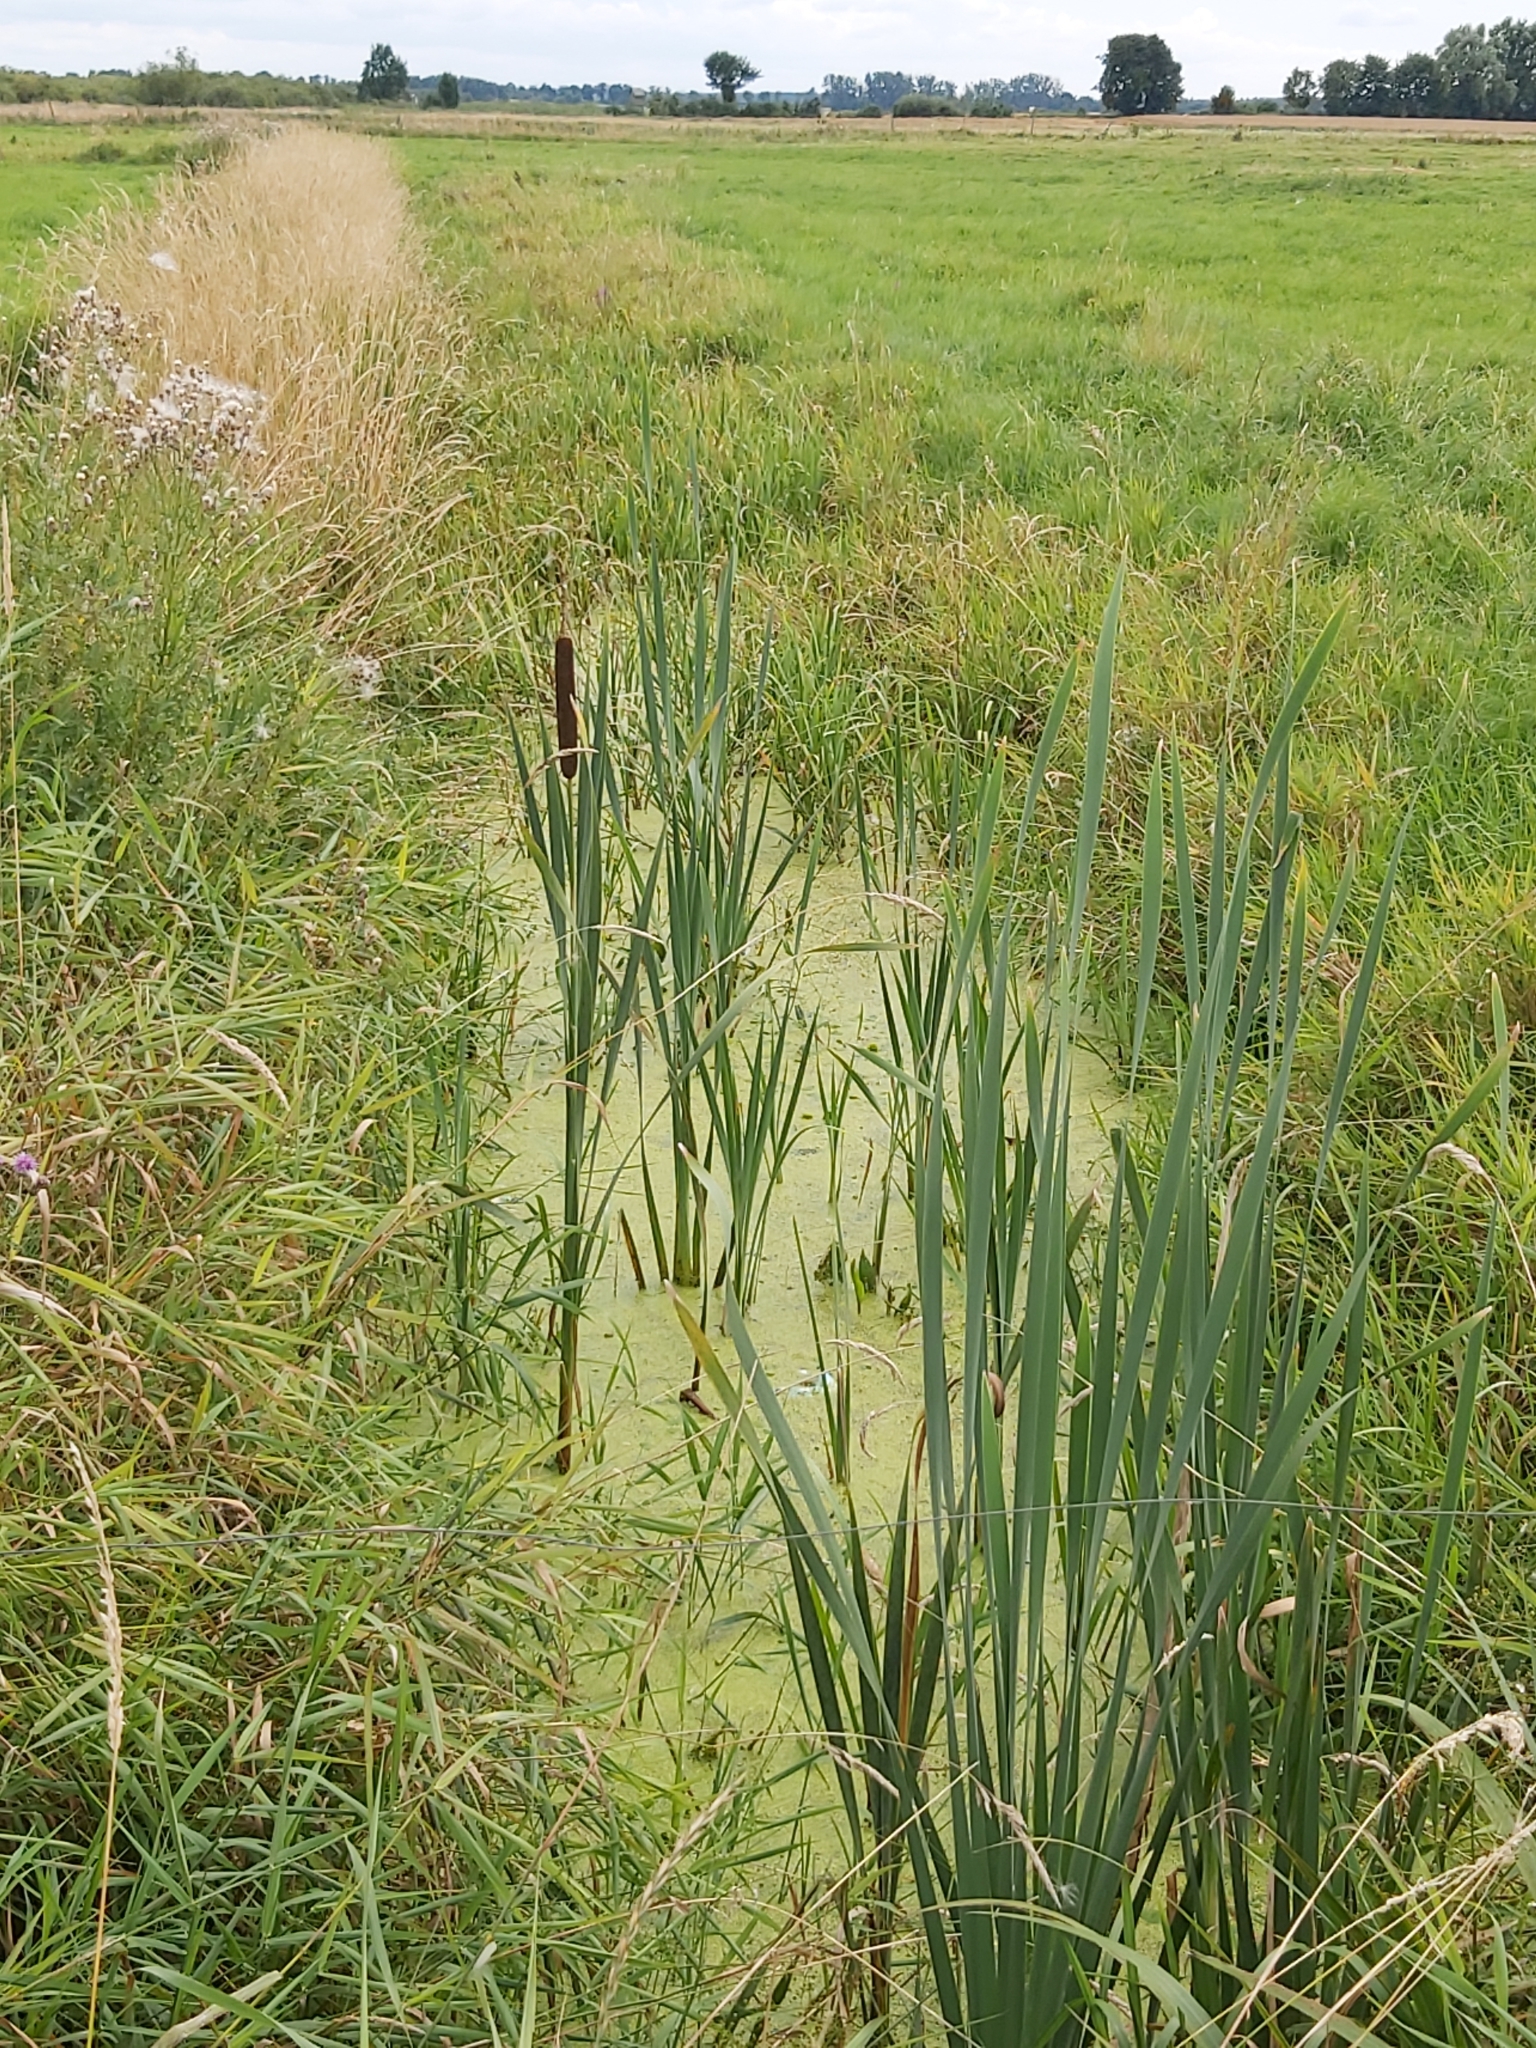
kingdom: Plantae
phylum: Tracheophyta
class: Liliopsida
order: Poales
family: Typhaceae
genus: Typha
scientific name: Typha latifolia
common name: Broadleaf cattail
